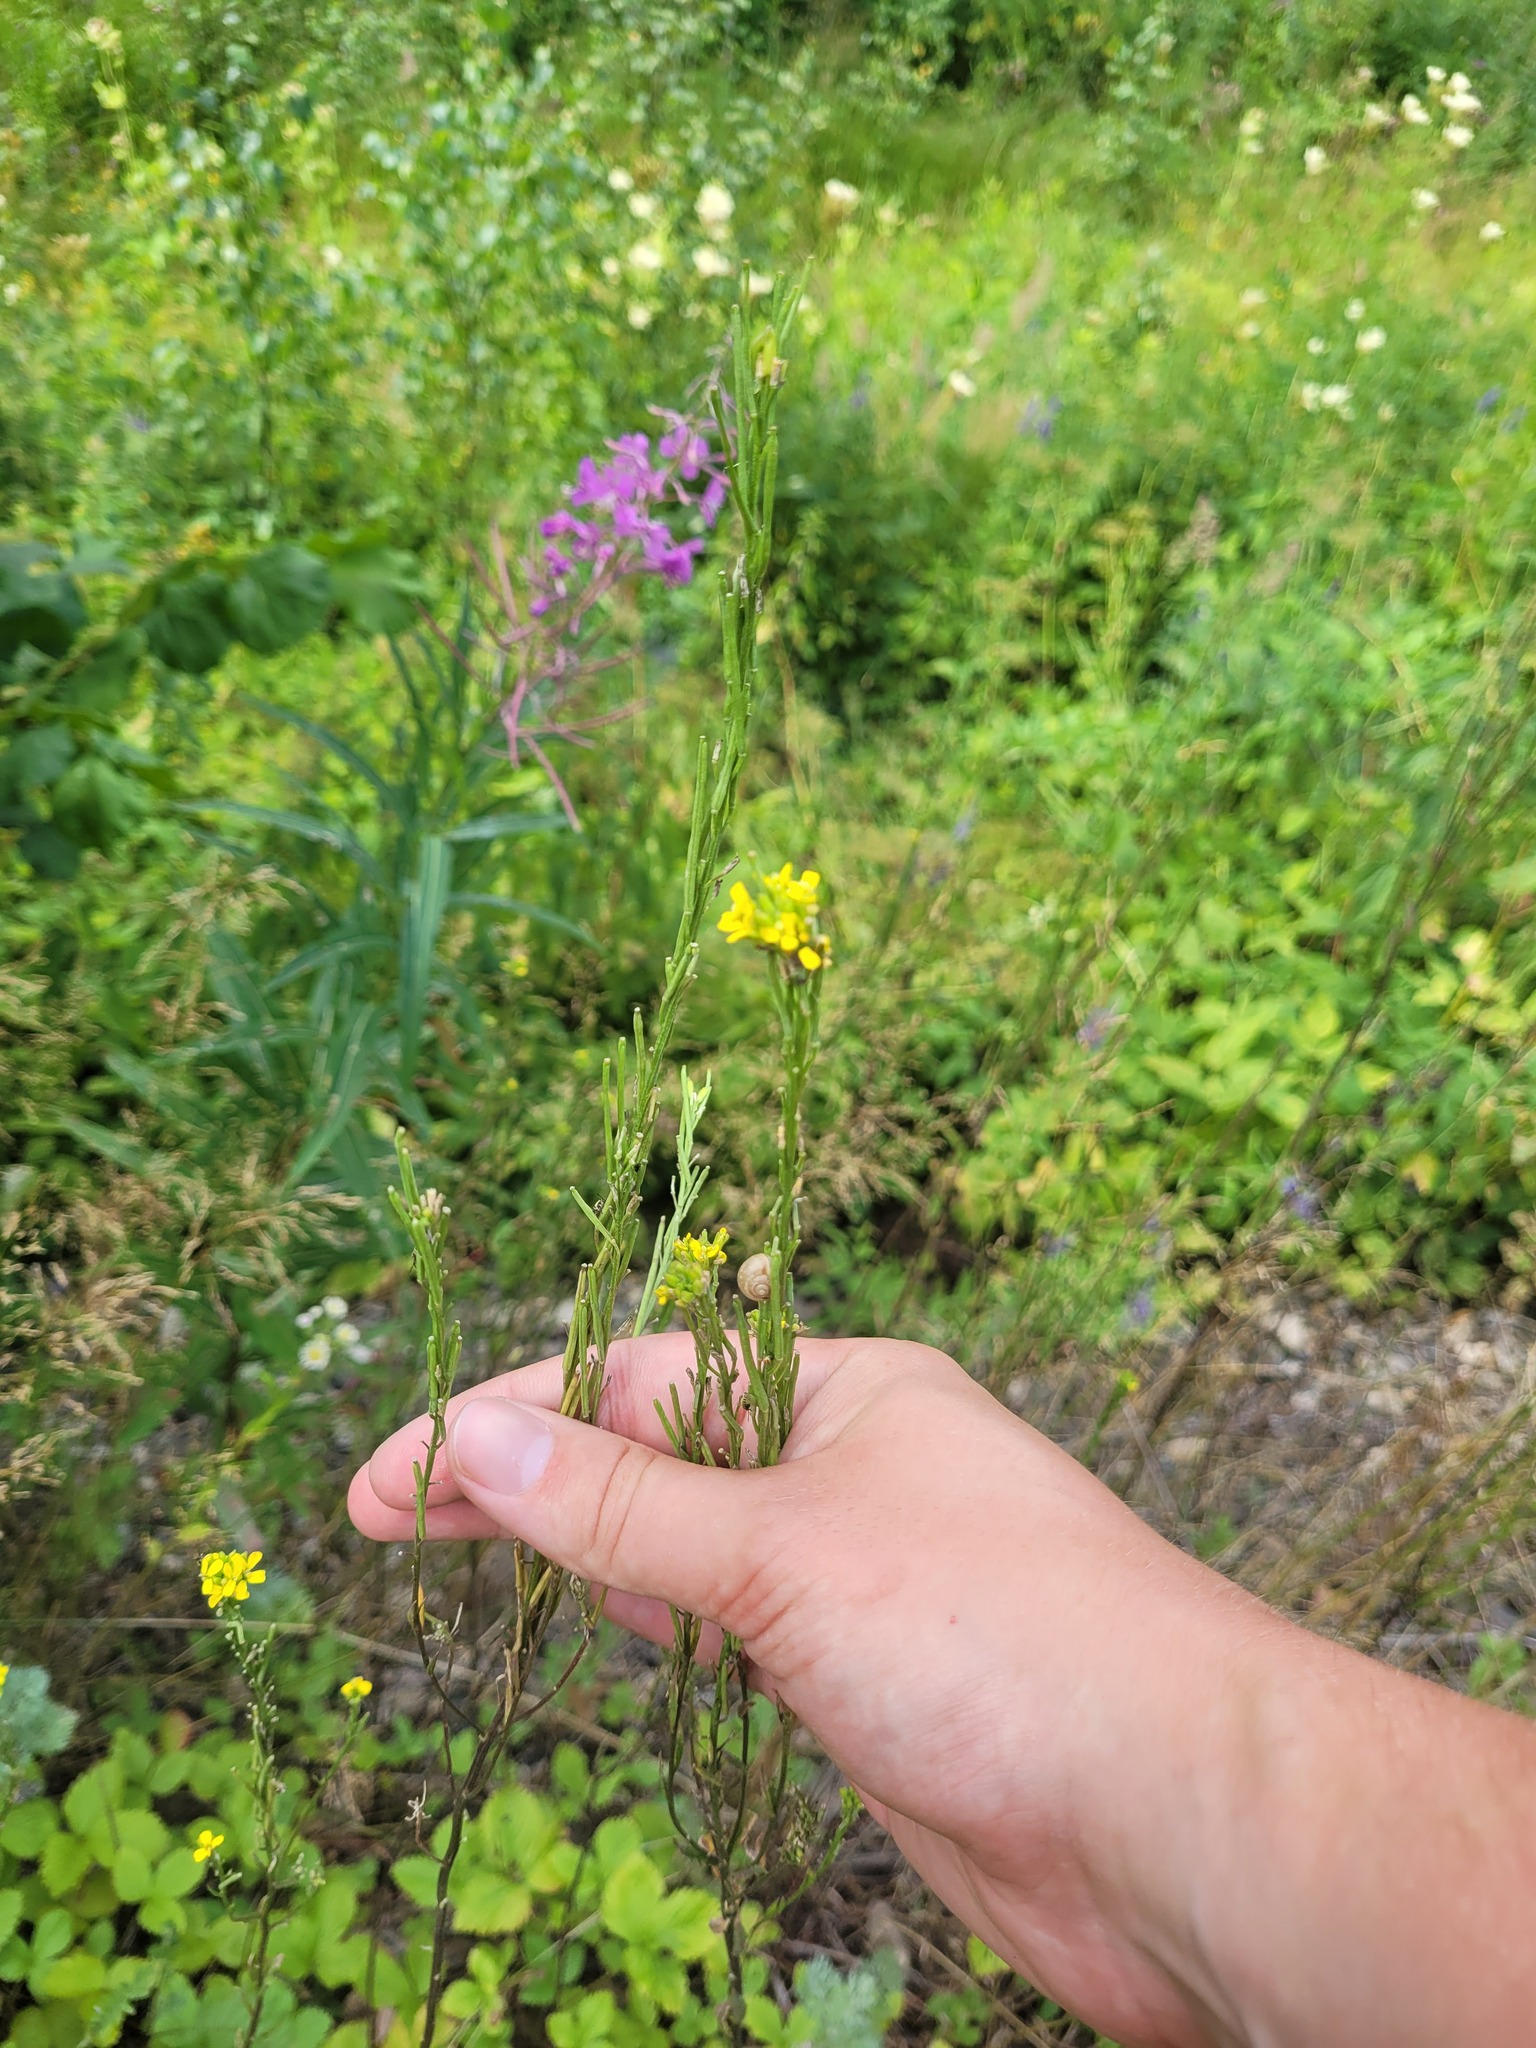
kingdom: Plantae
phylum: Tracheophyta
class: Magnoliopsida
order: Brassicales
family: Brassicaceae
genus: Erysimum
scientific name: Erysimum hieraciifolium
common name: European wallflower
